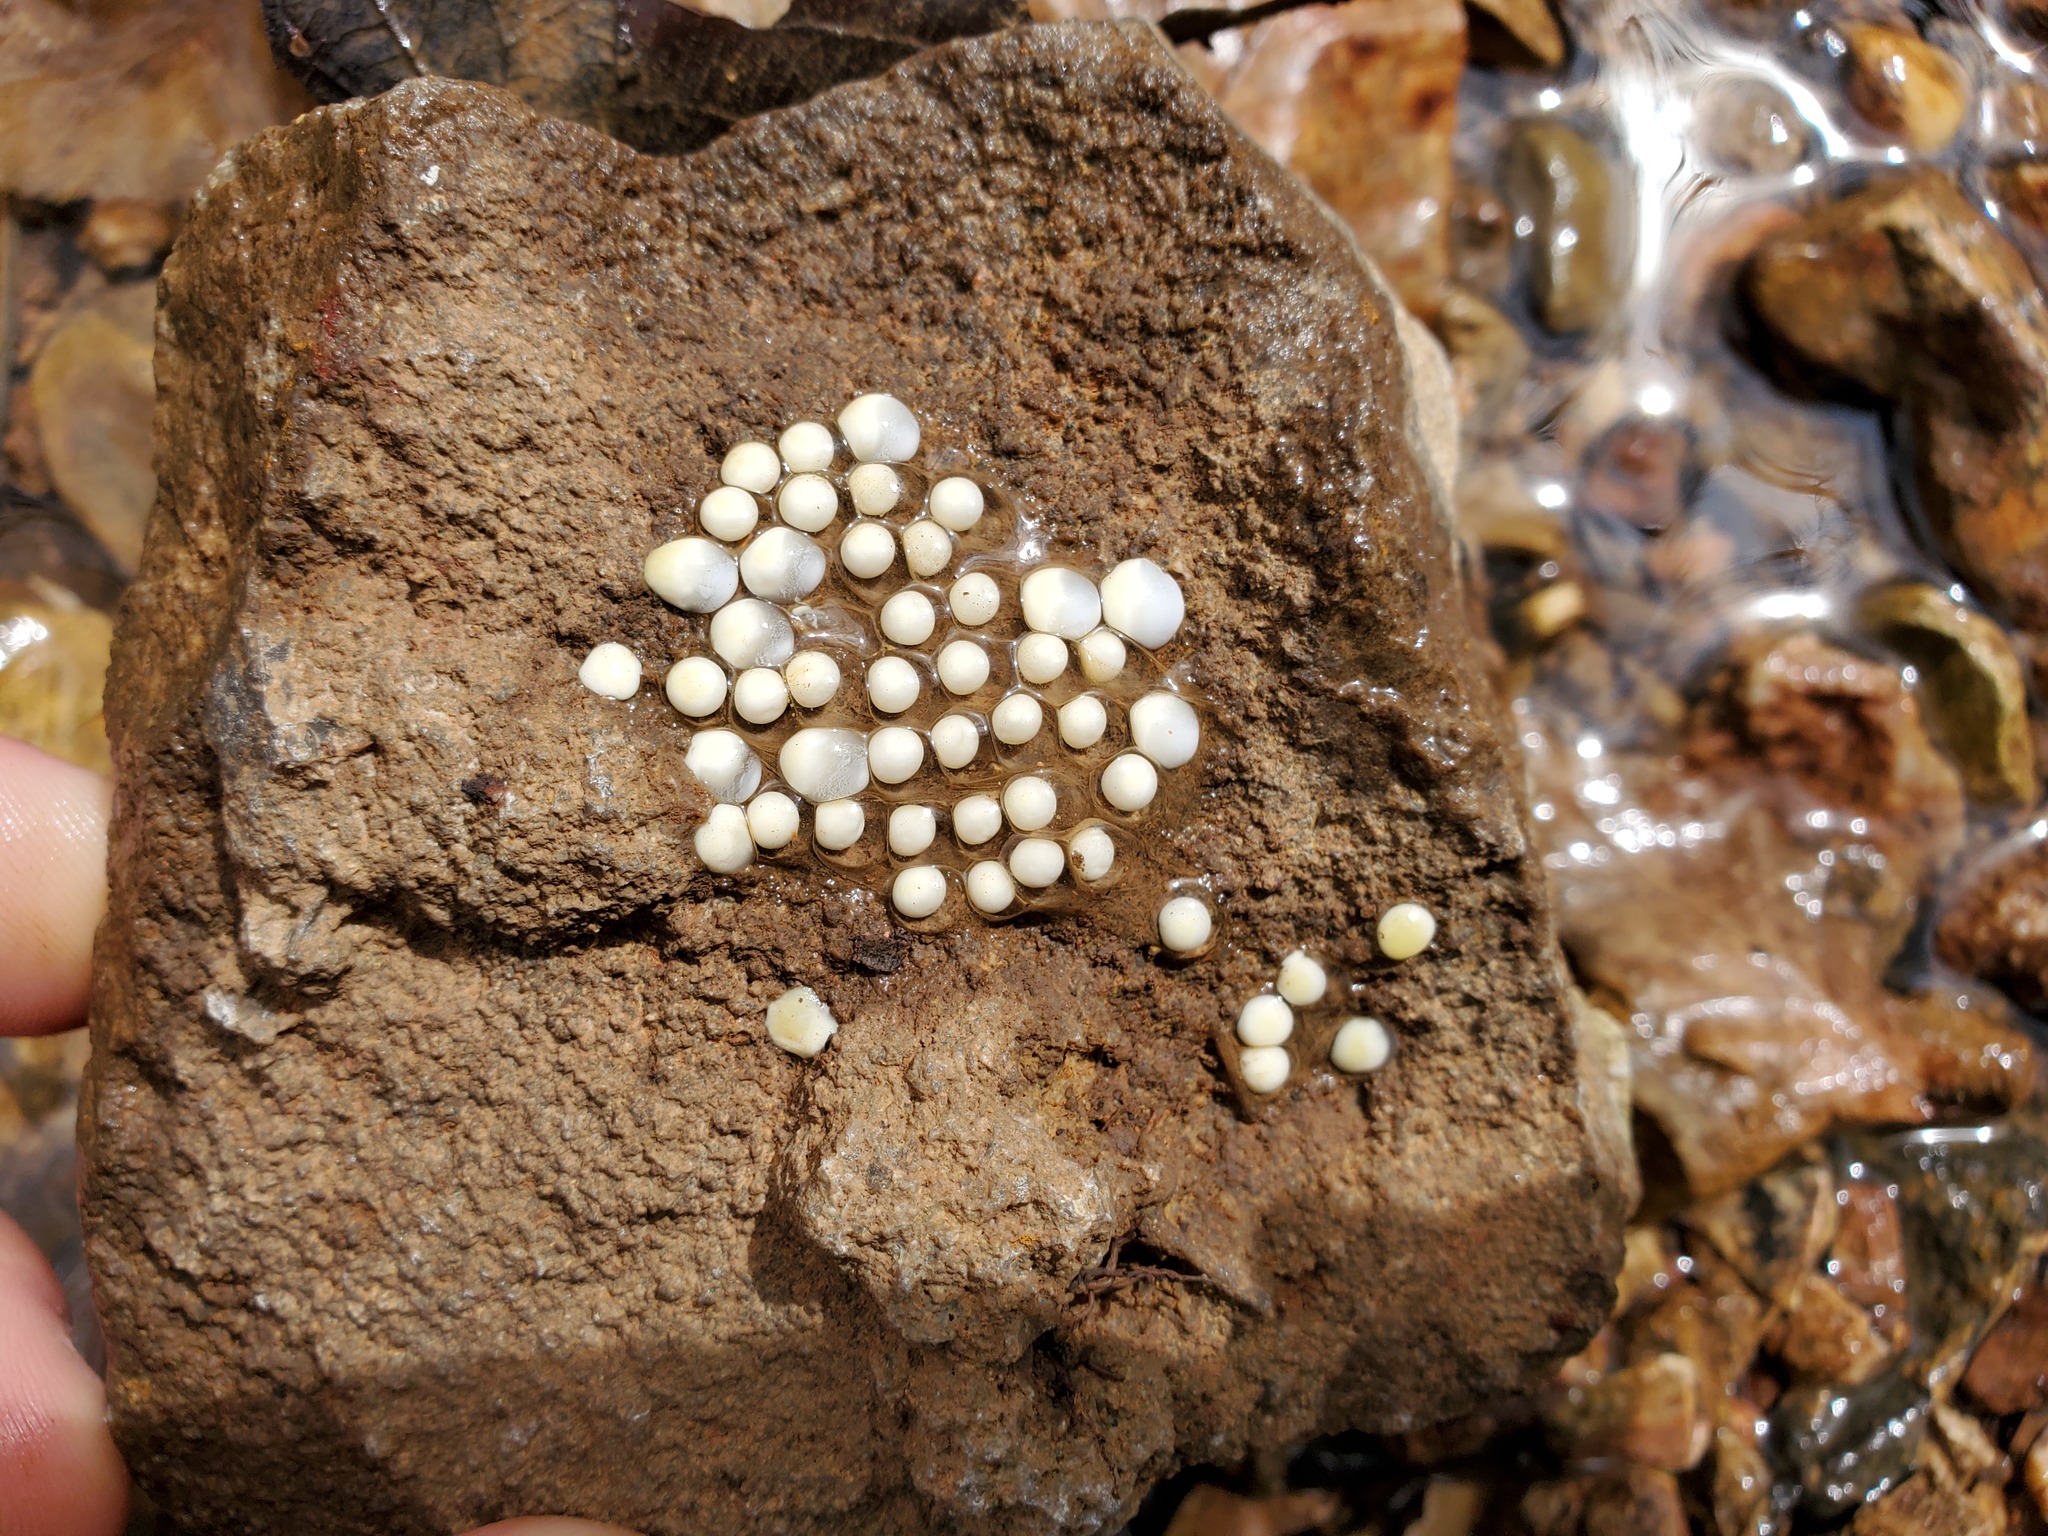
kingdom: Animalia
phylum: Chordata
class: Amphibia
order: Caudata
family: Plethodontidae
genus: Eurycea
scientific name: Eurycea cirrigera
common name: Southern two-lined salamander
